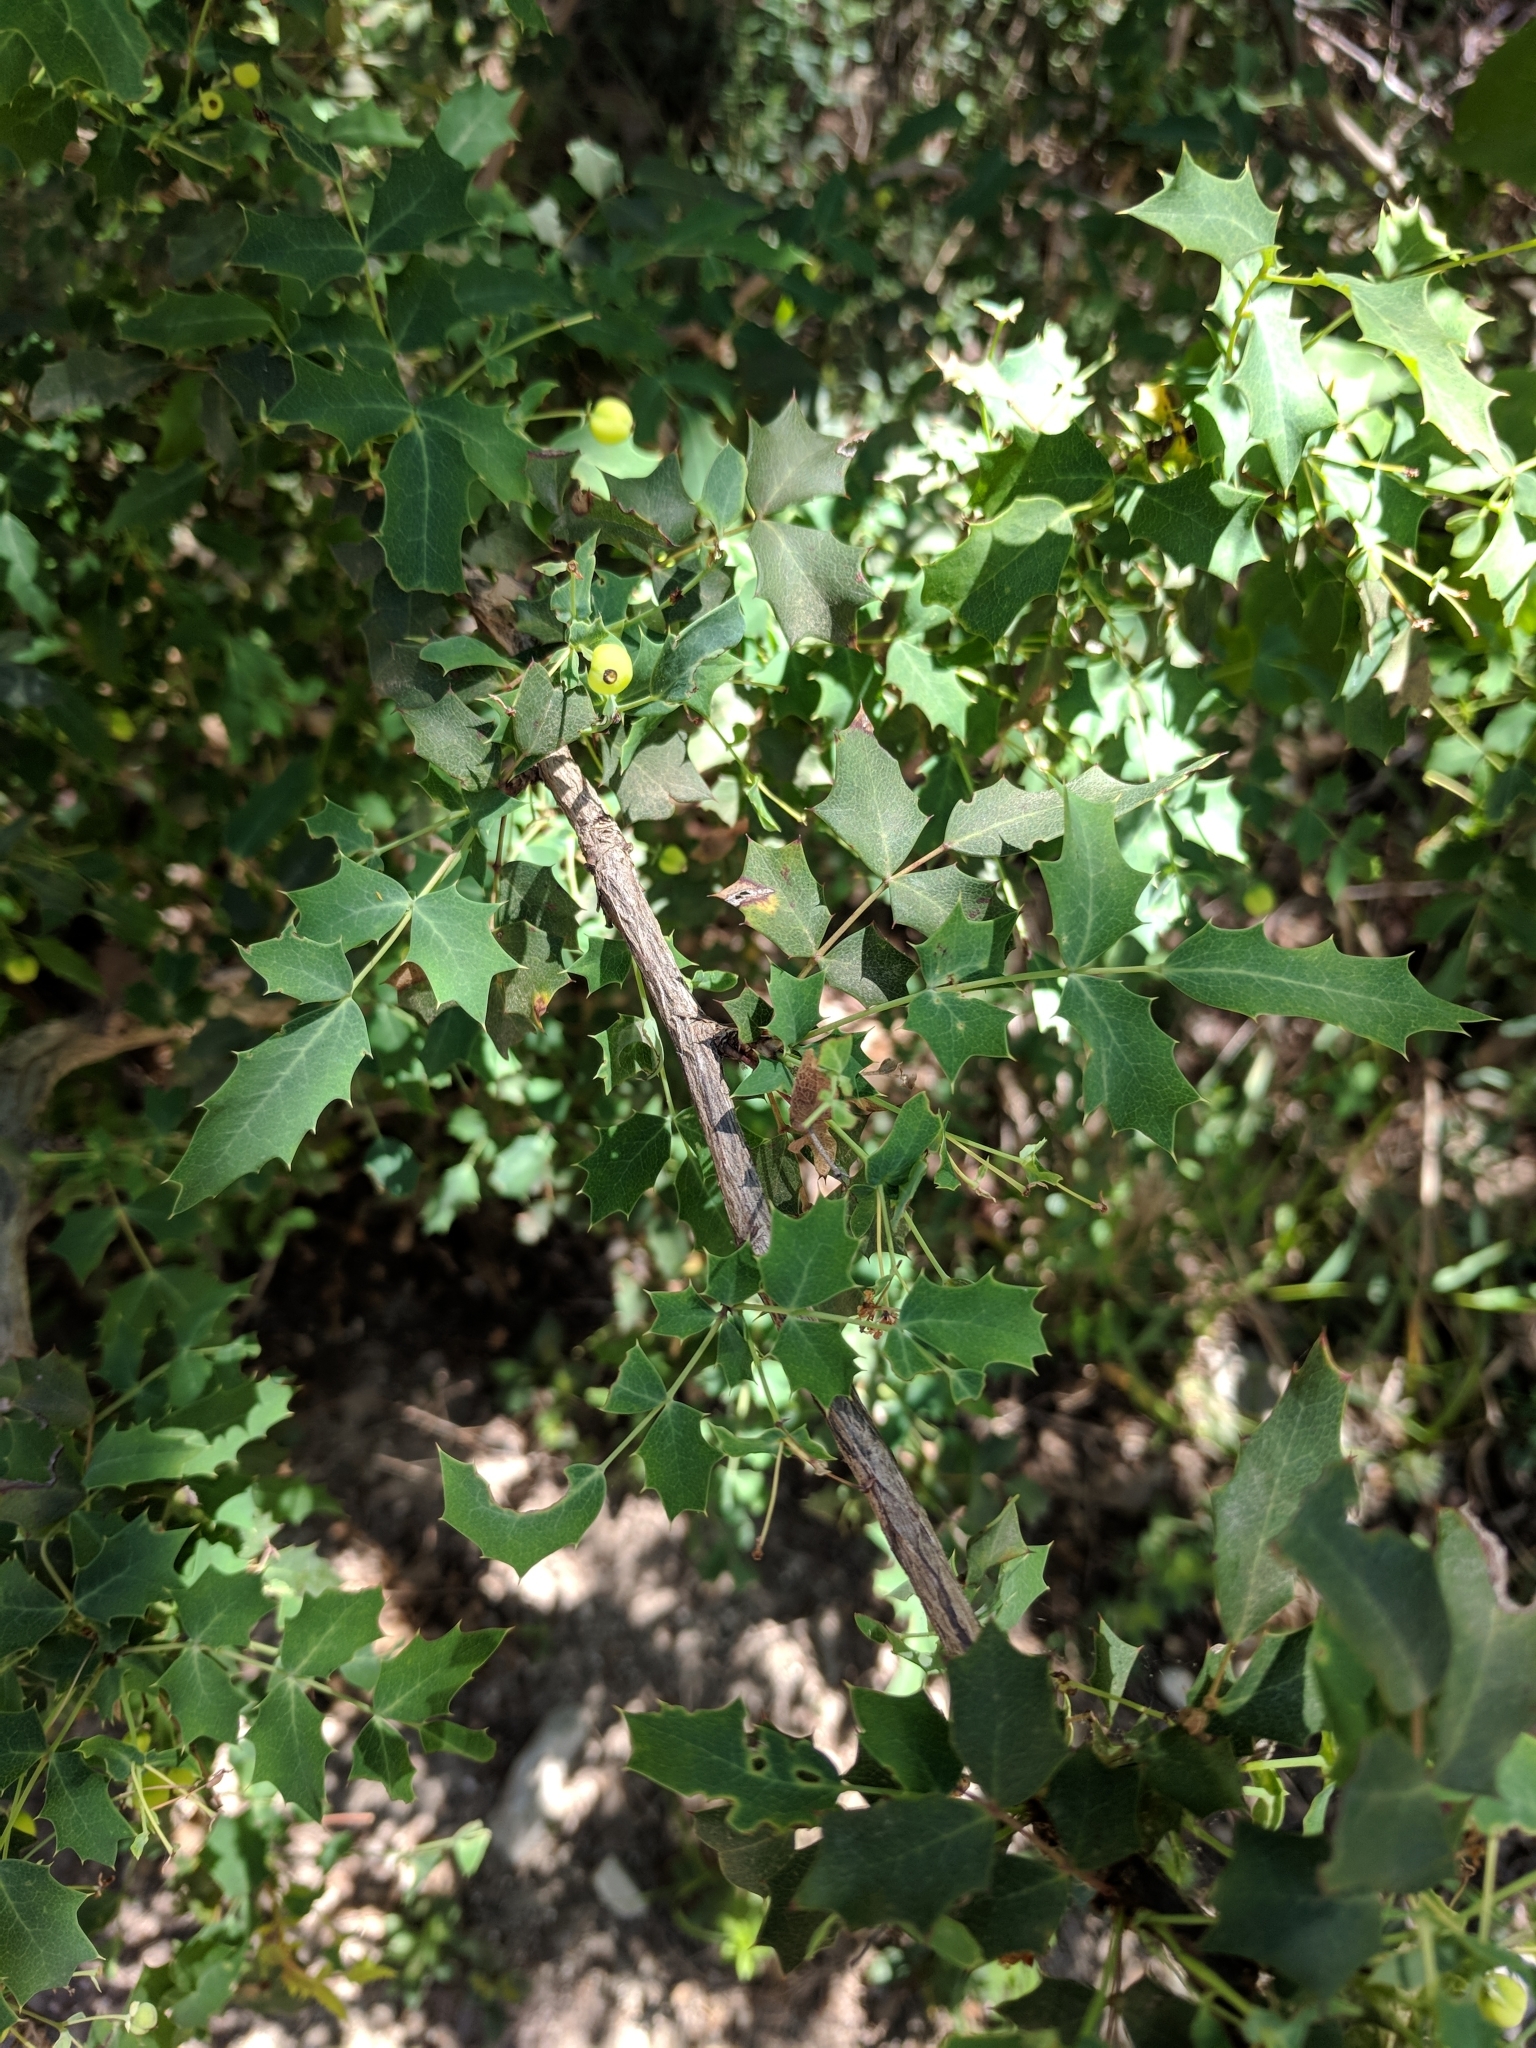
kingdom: Plantae
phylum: Tracheophyta
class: Magnoliopsida
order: Ranunculales
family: Berberidaceae
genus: Berberis
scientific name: Berberis swaseyi
